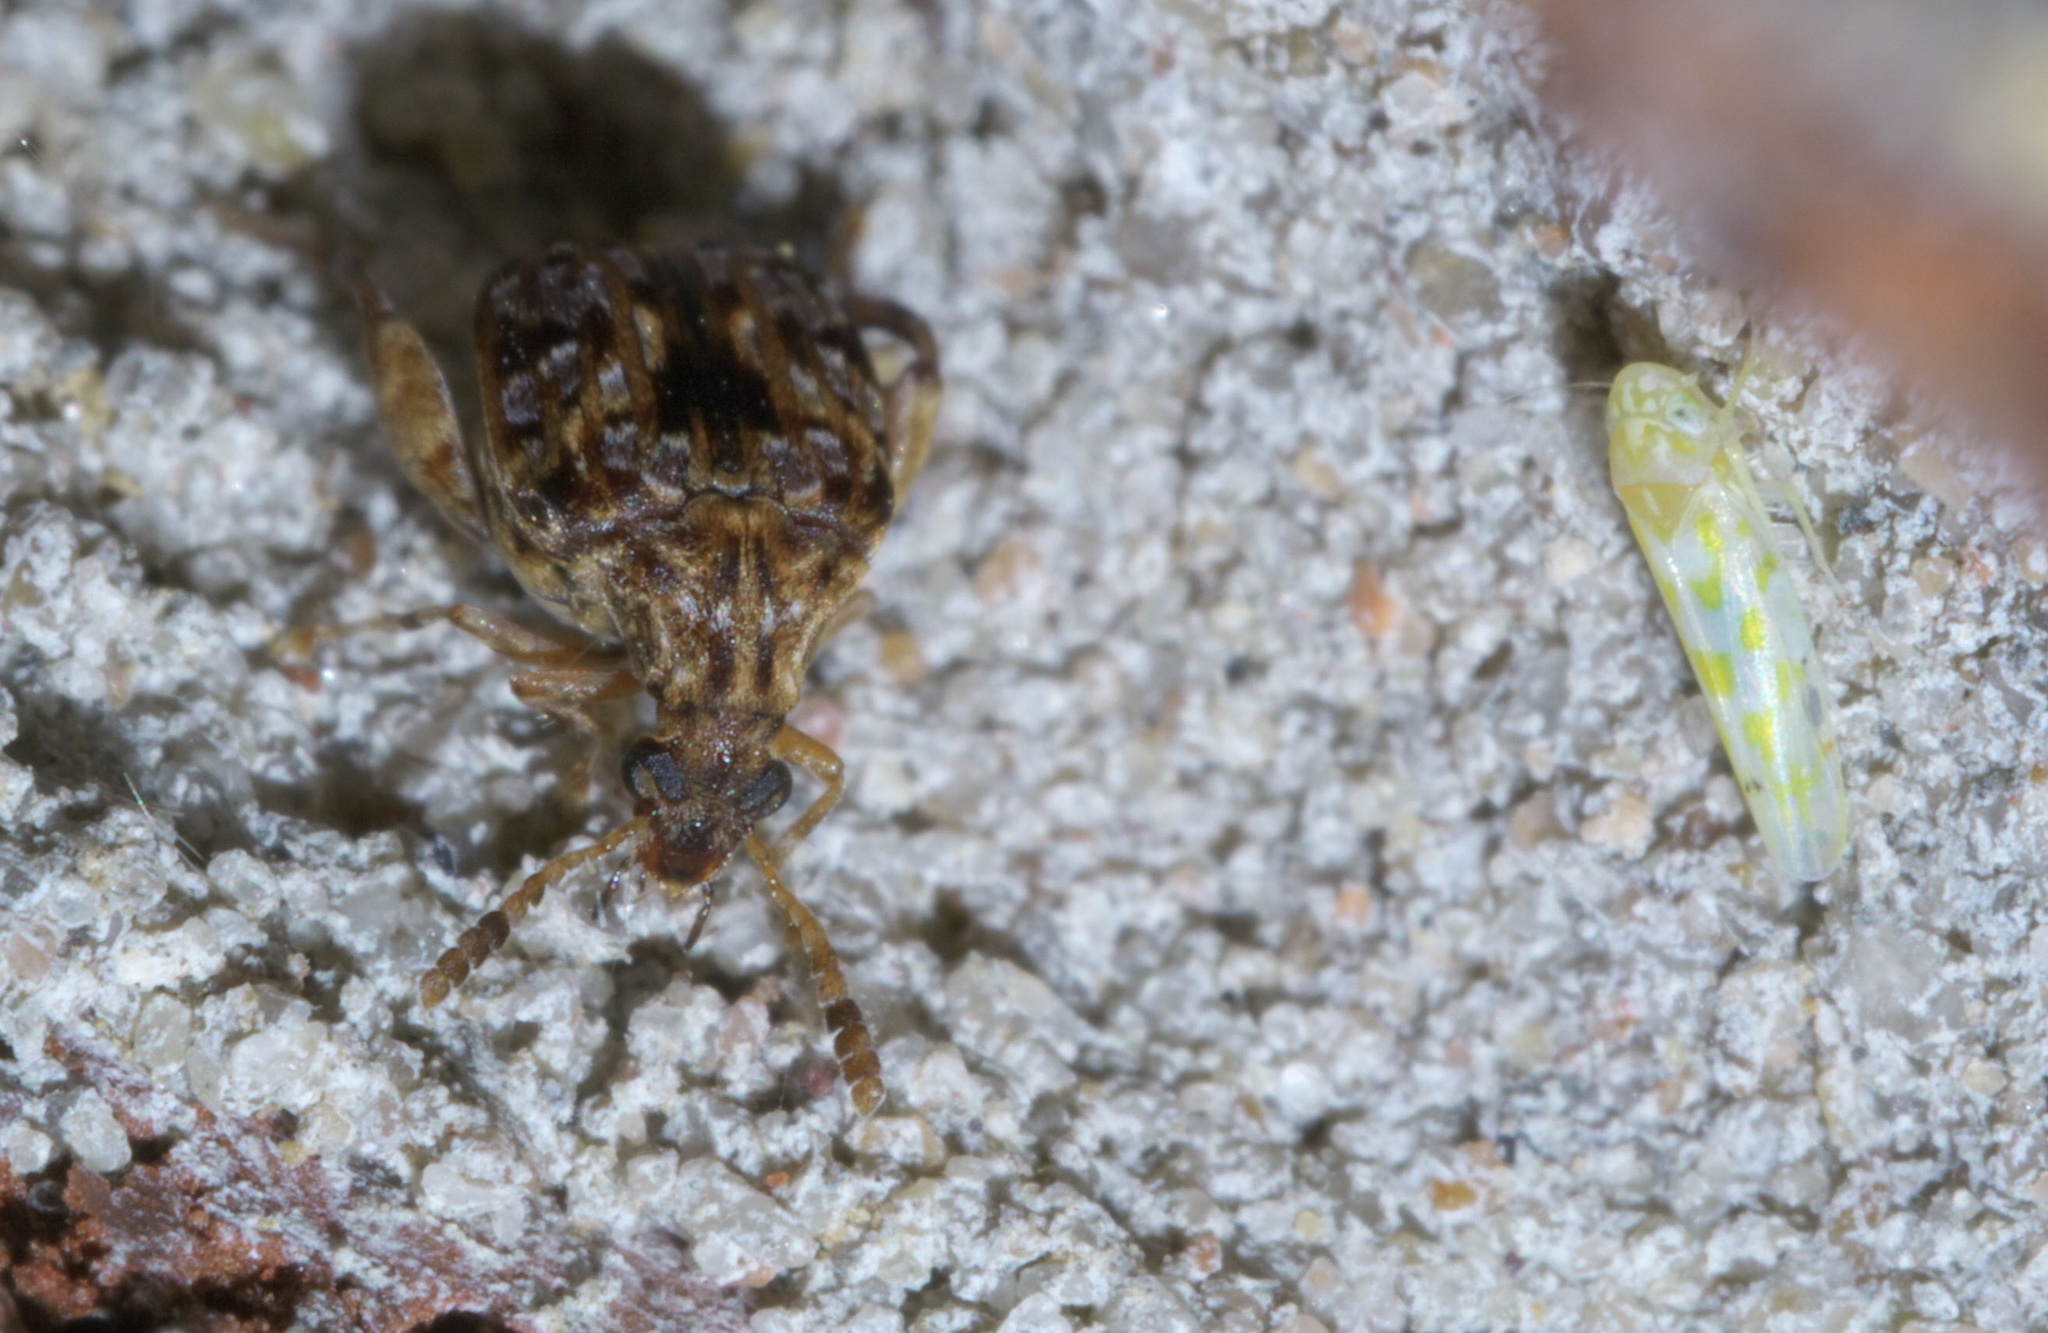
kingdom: Animalia
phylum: Arthropoda
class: Insecta
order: Coleoptera
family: Chrysomelidae
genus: Gibbobruchus
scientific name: Gibbobruchus mimus
